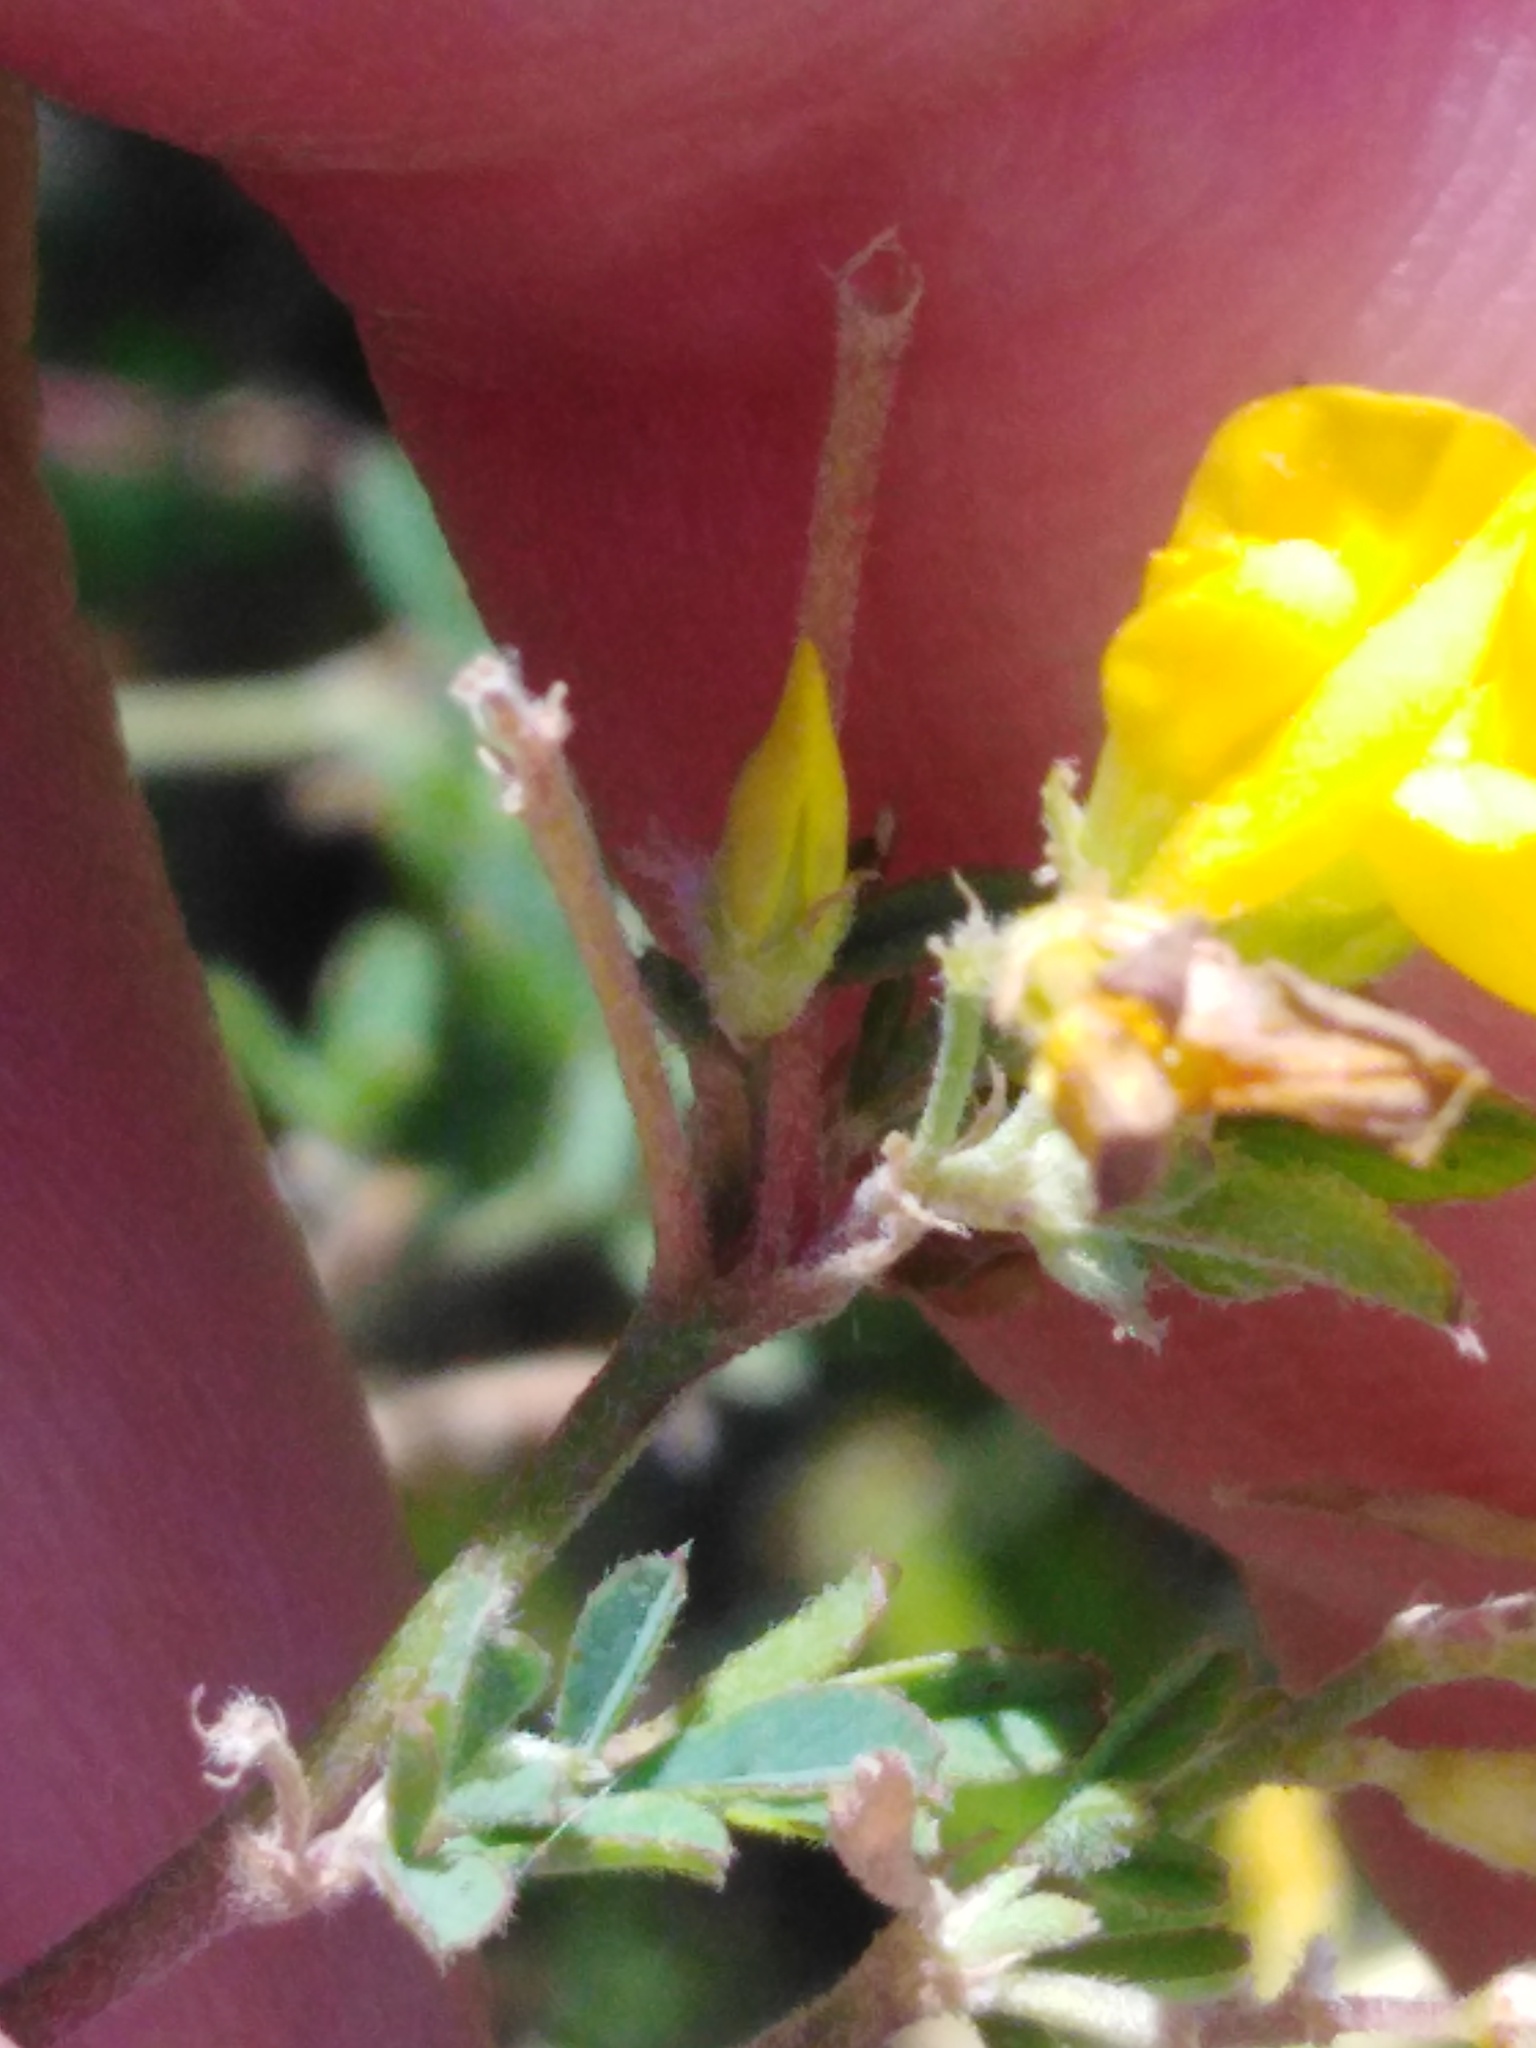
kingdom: Plantae
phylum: Tracheophyta
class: Magnoliopsida
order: Fabales
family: Fabaceae
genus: Medicago
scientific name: Medicago falcata
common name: Sickle medick
